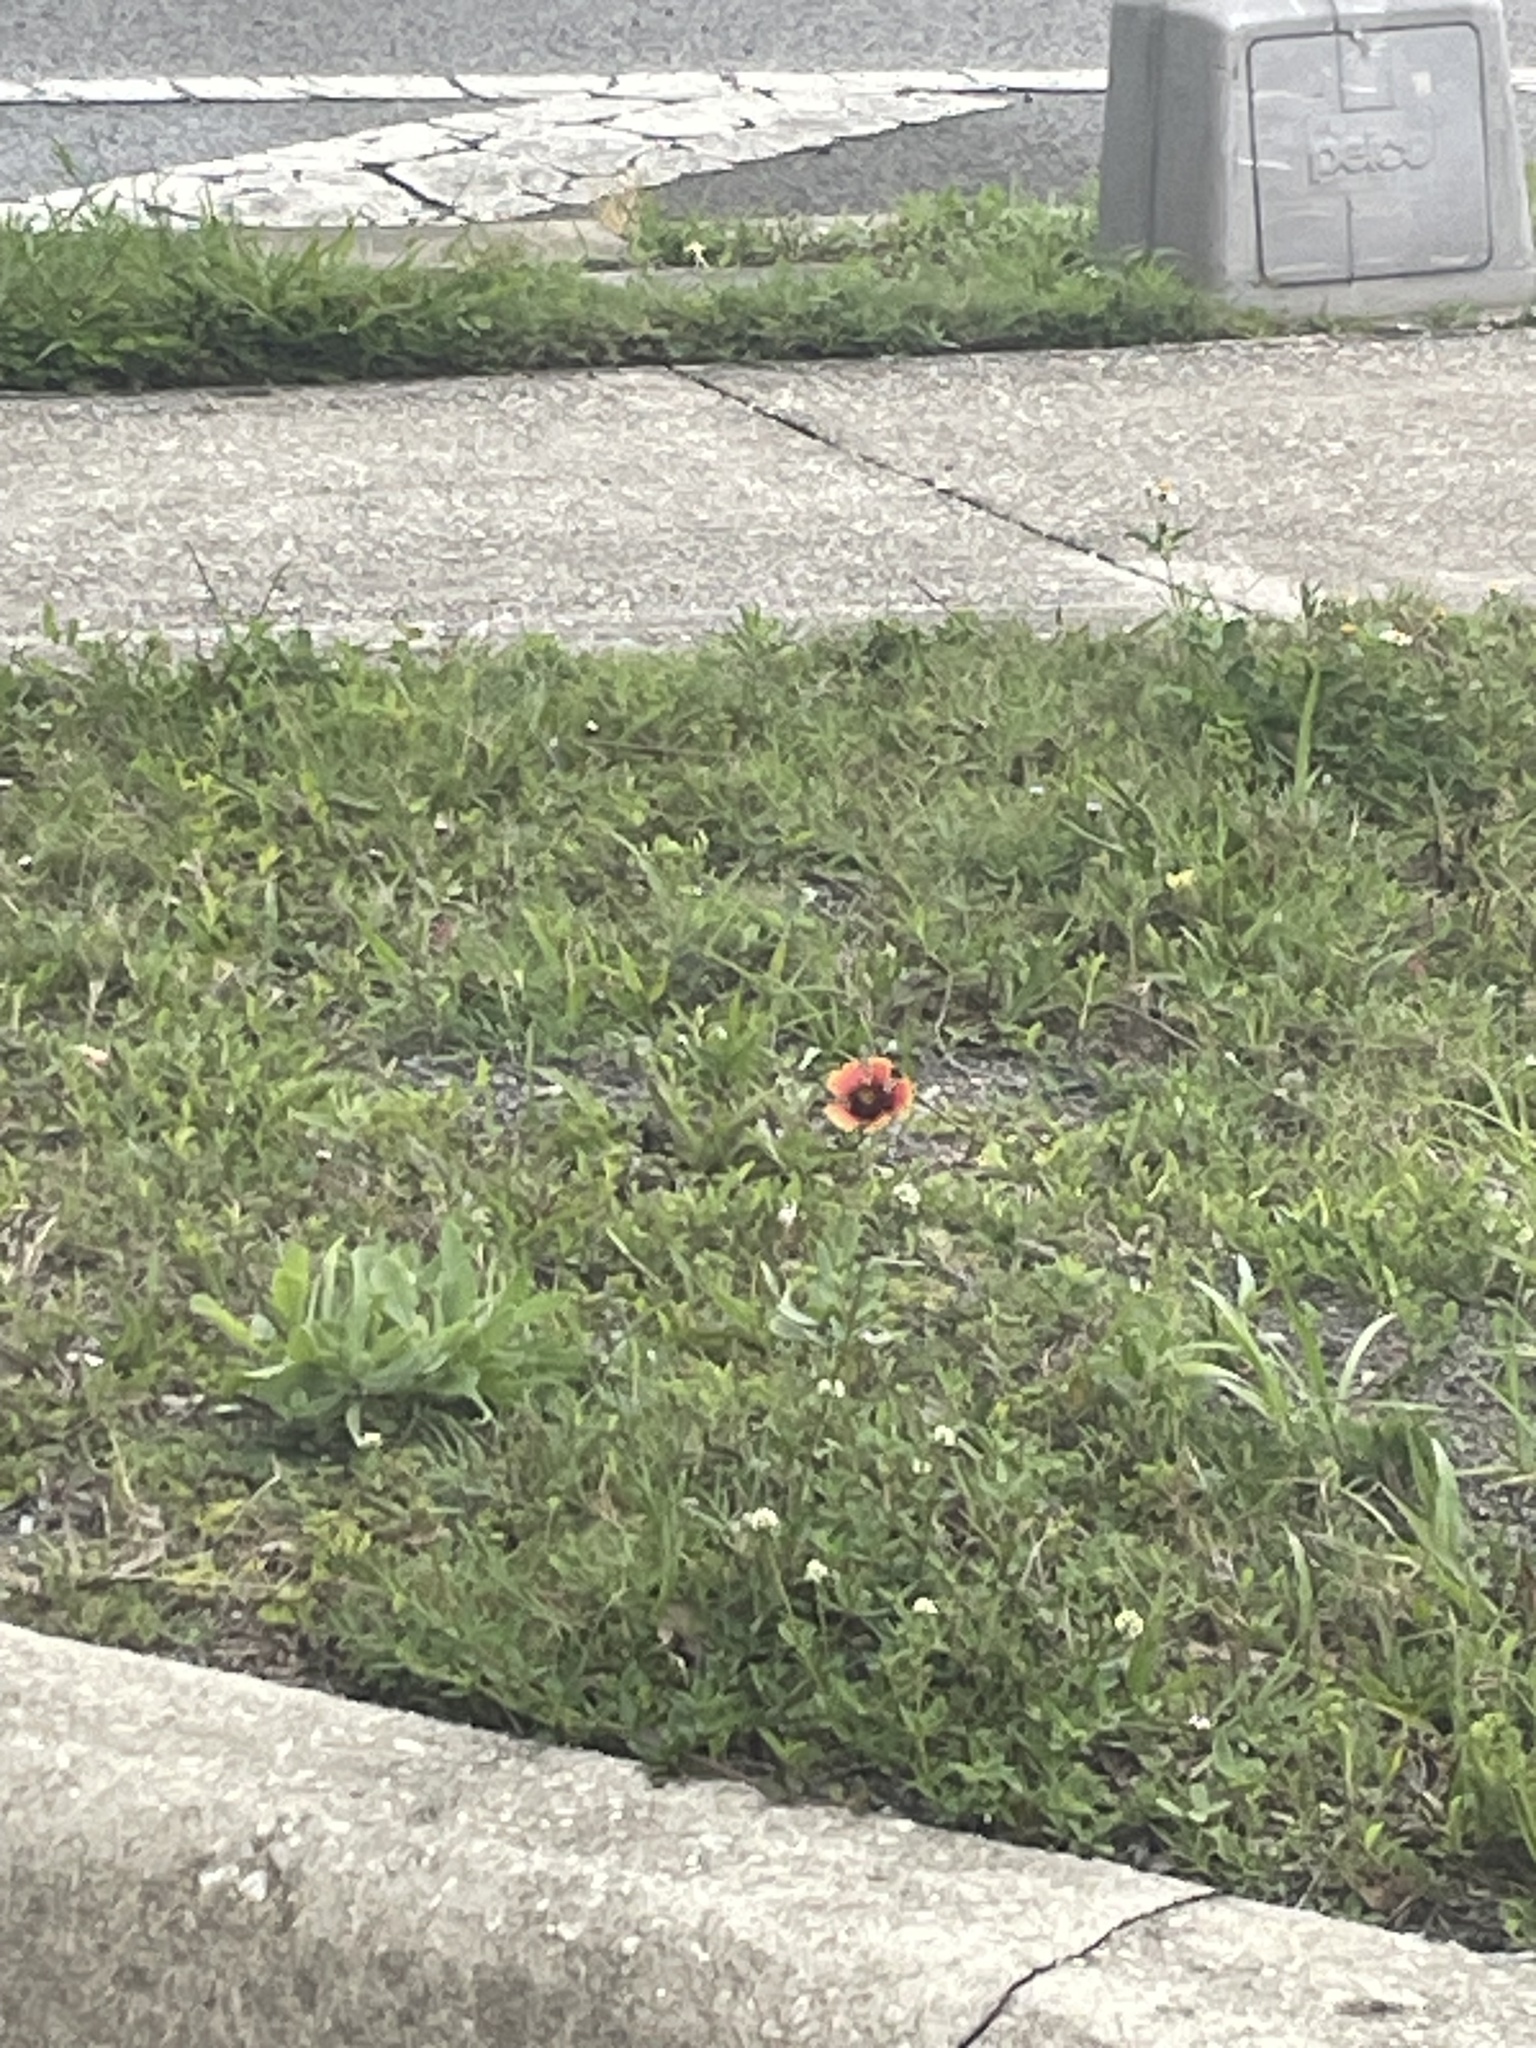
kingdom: Plantae
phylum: Tracheophyta
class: Magnoliopsida
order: Asterales
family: Asteraceae
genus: Gaillardia
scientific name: Gaillardia pulchella
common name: Firewheel
